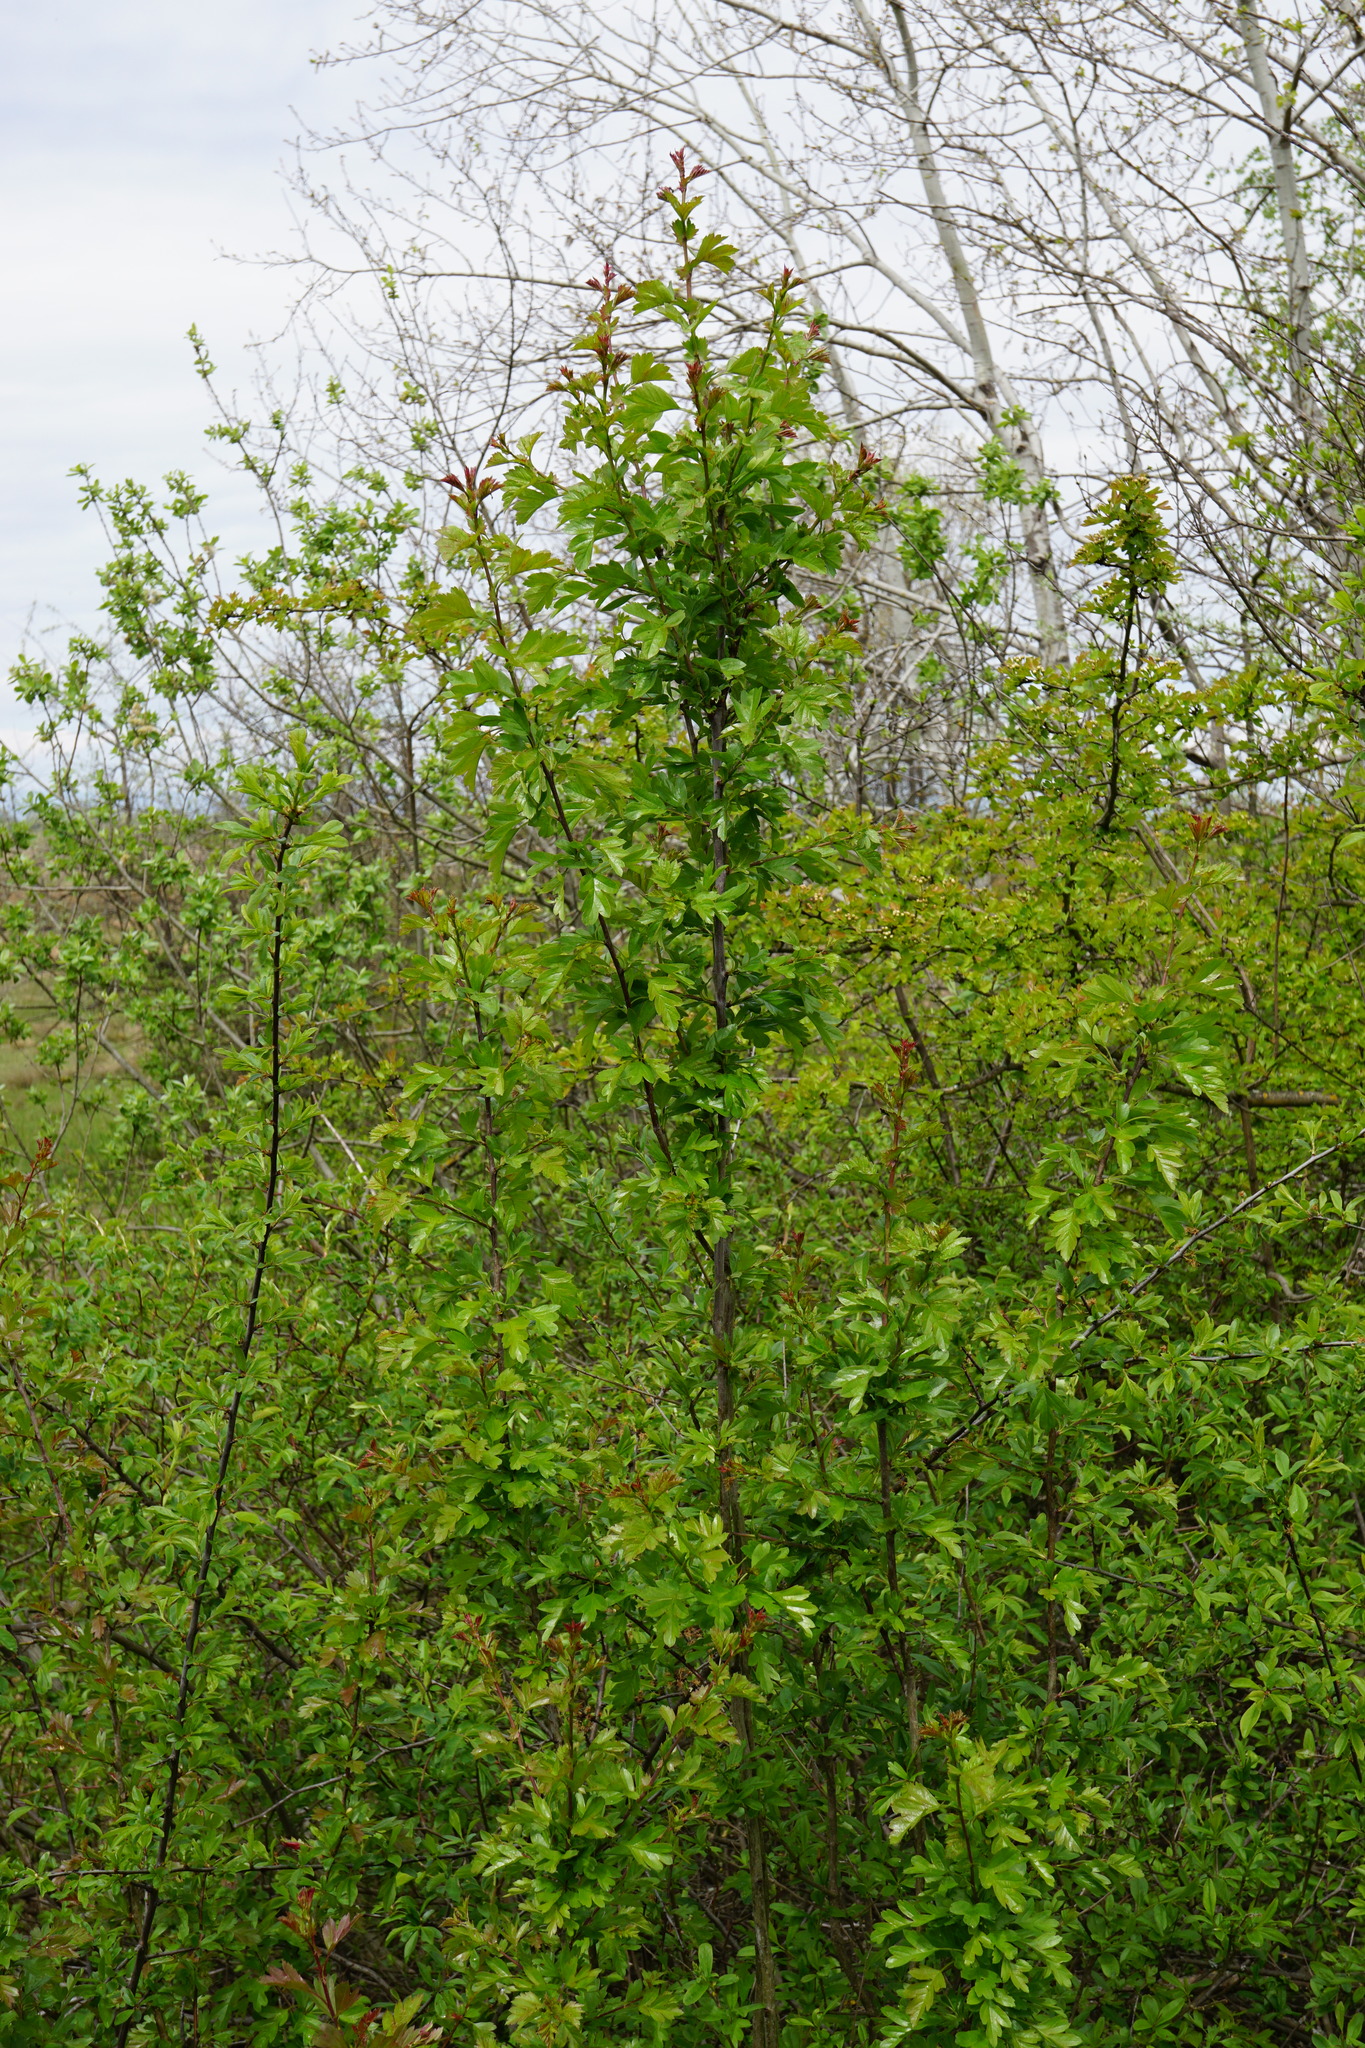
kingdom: Plantae
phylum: Tracheophyta
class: Magnoliopsida
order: Rosales
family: Rosaceae
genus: Crataegus
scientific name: Crataegus monogyna
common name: Hawthorn
